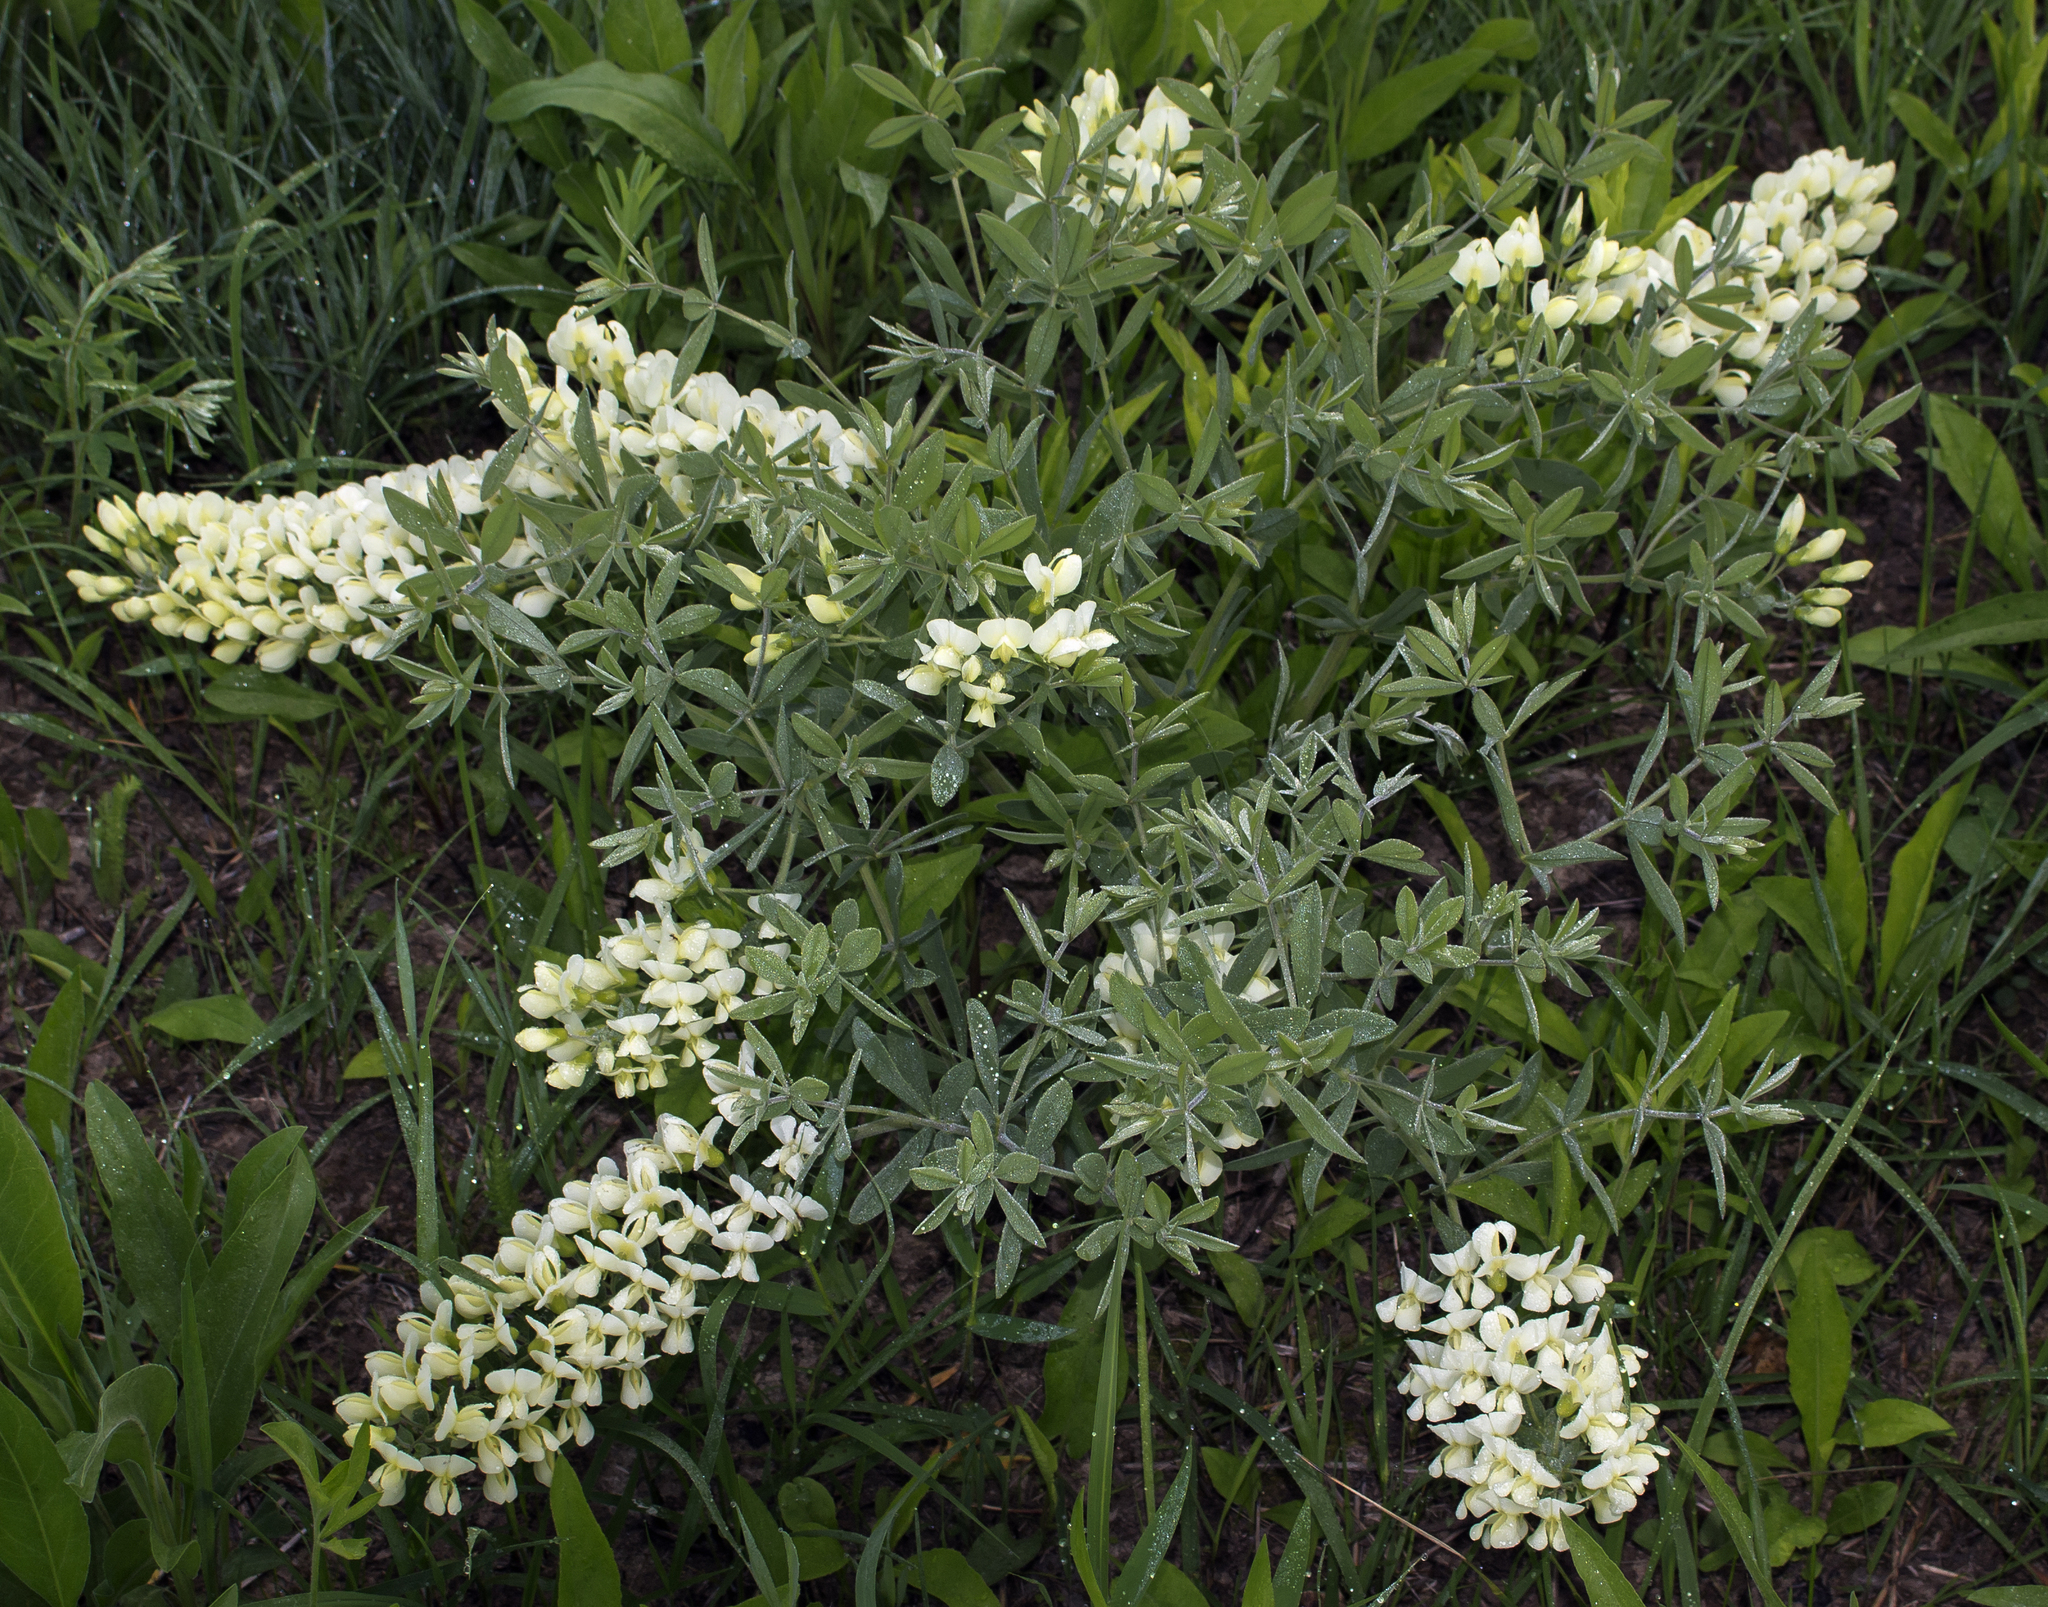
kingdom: Plantae
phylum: Tracheophyta
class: Magnoliopsida
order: Fabales
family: Fabaceae
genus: Baptisia
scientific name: Baptisia bracteata
